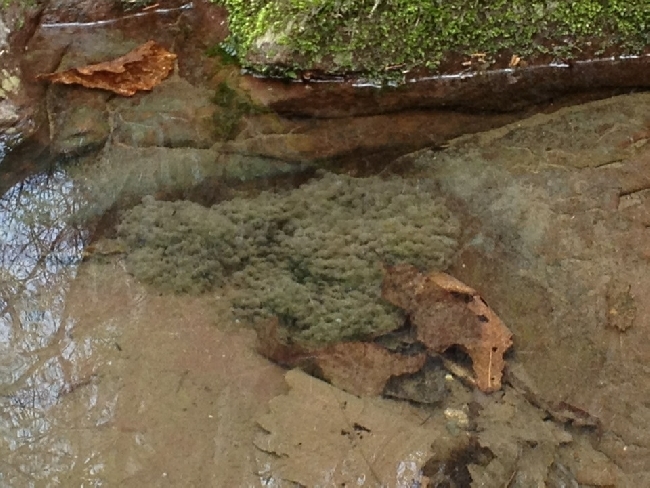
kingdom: Animalia
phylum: Chordata
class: Amphibia
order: Anura
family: Ranidae
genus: Rana
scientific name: Rana huanrenensis
